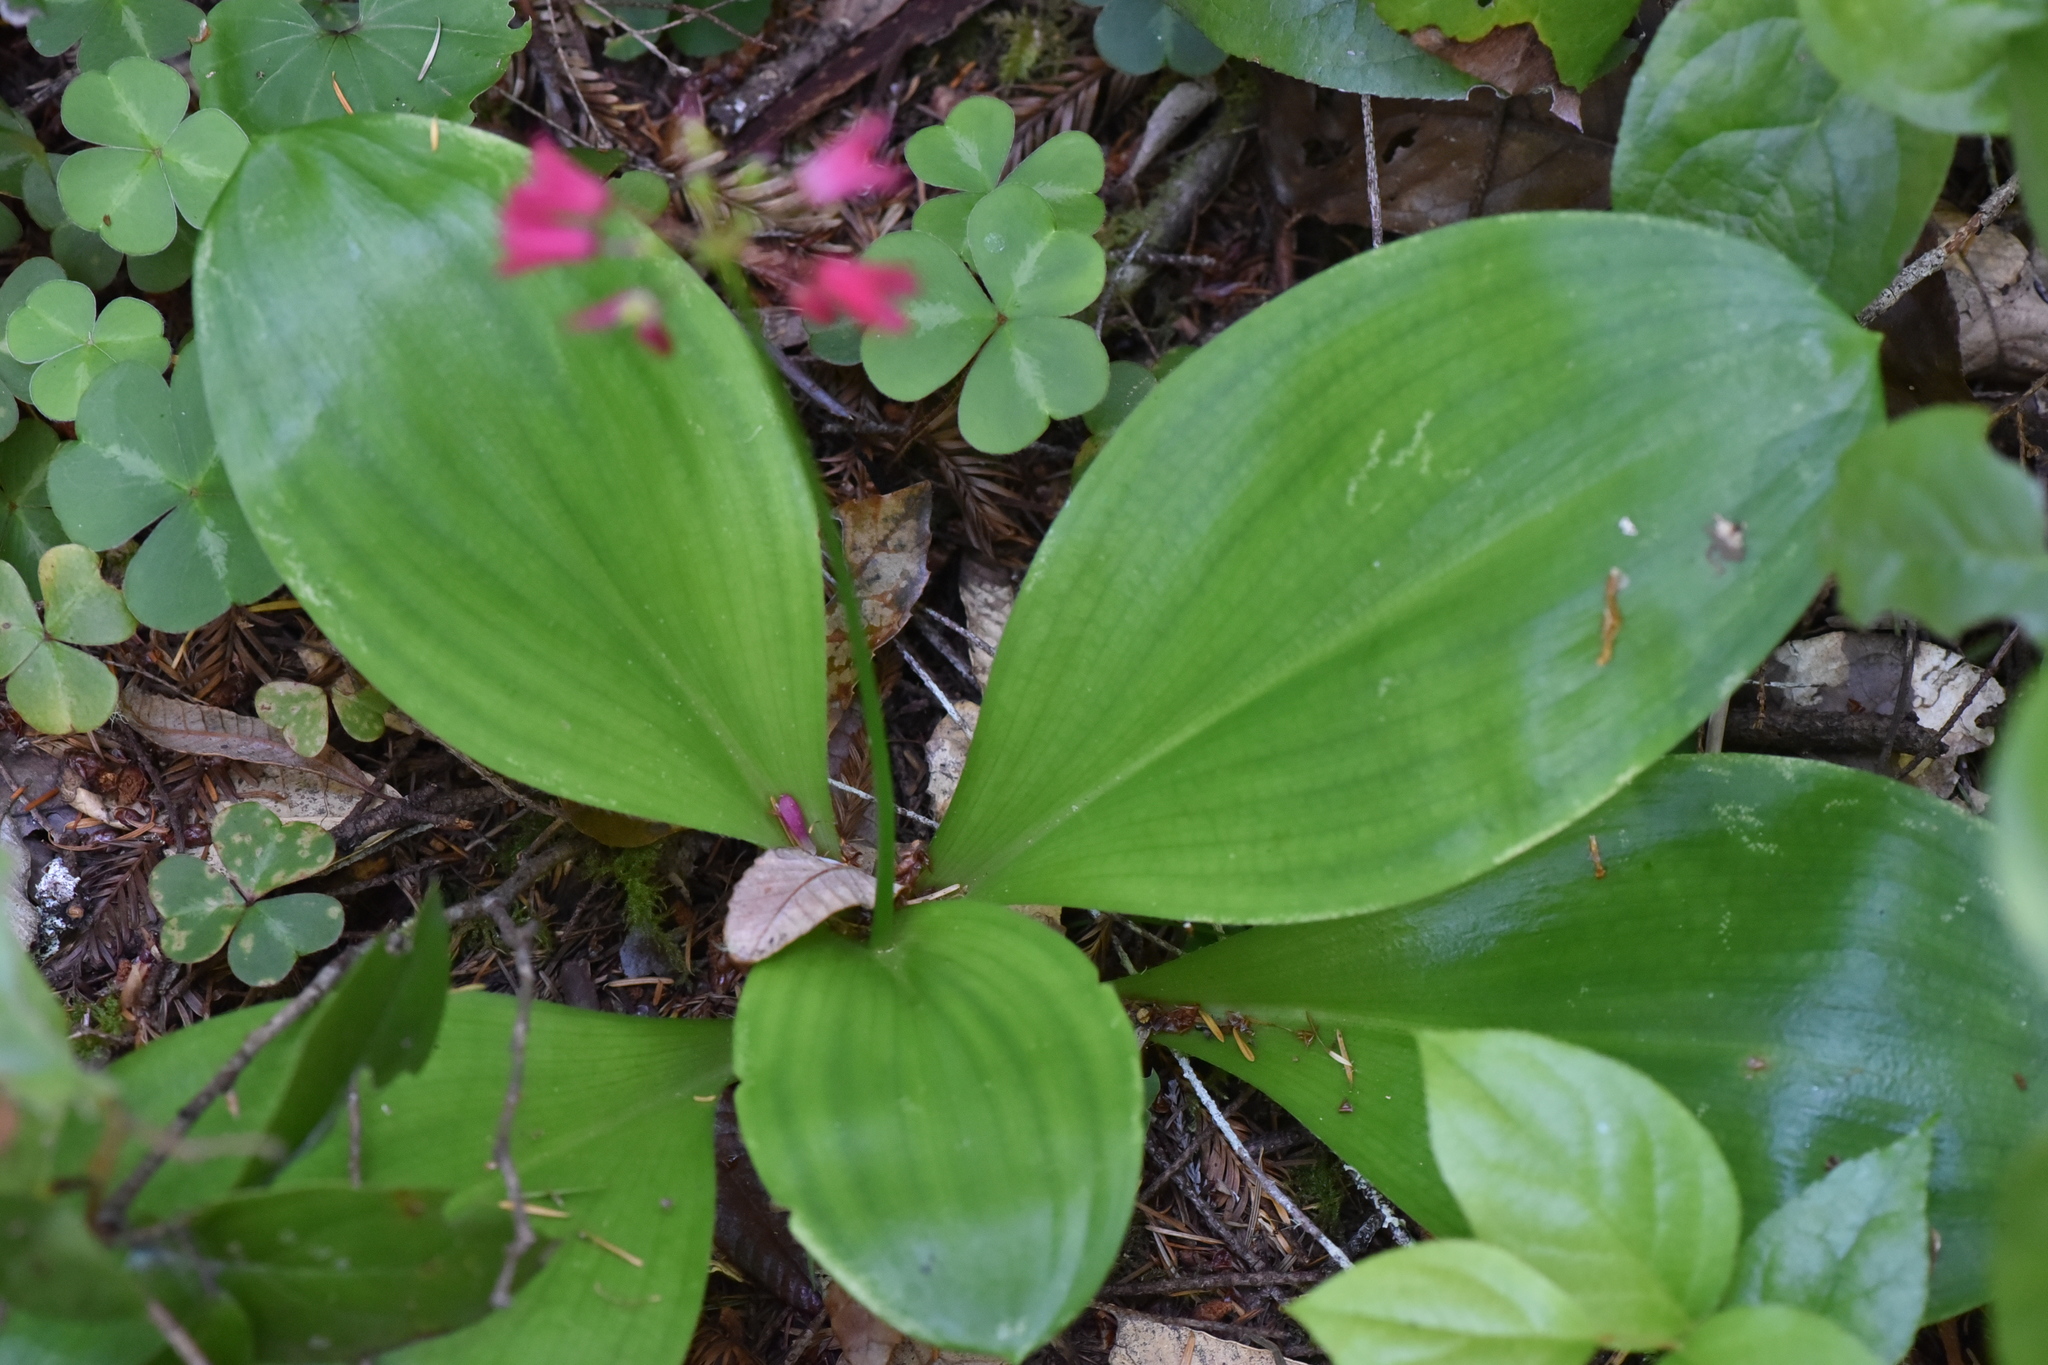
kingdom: Plantae
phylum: Tracheophyta
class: Liliopsida
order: Liliales
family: Liliaceae
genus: Clintonia
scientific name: Clintonia andrewsiana
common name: Red clintonia
